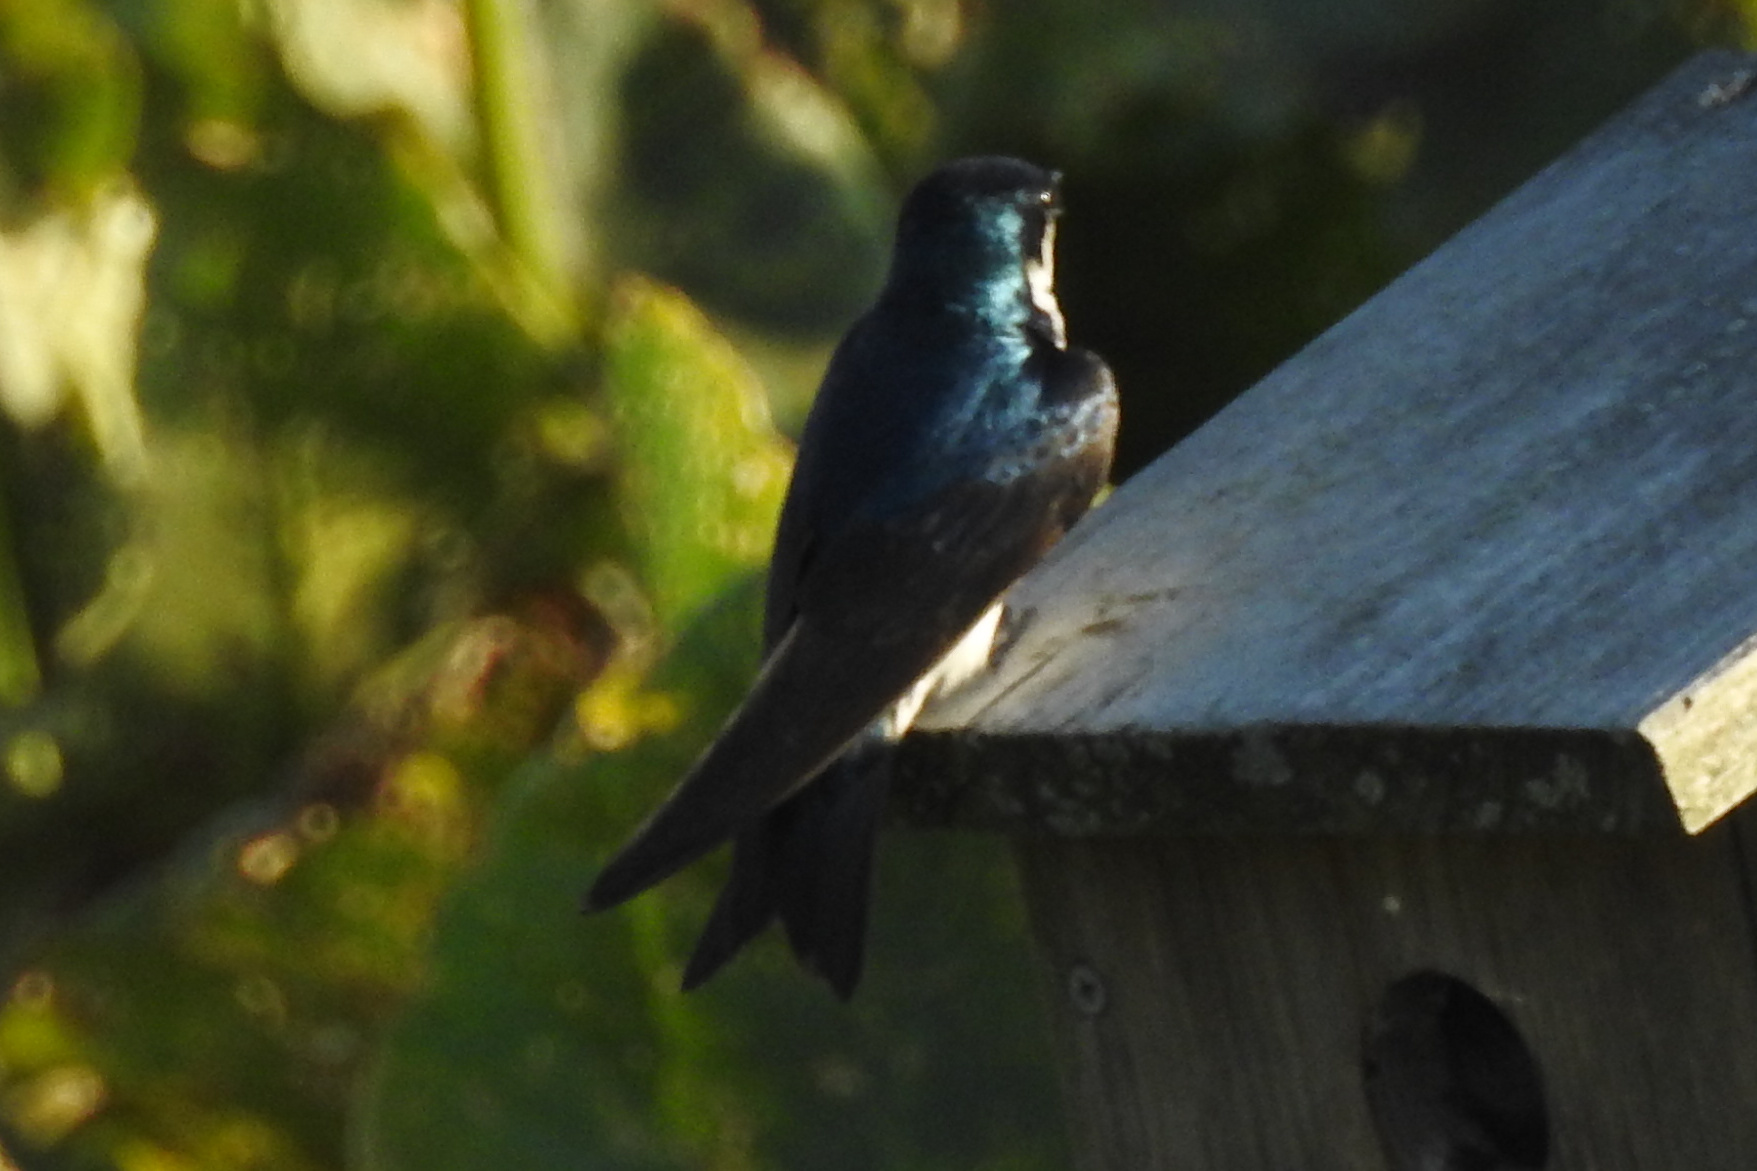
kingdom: Animalia
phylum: Chordata
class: Aves
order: Passeriformes
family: Hirundinidae
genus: Tachycineta
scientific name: Tachycineta bicolor
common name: Tree swallow
